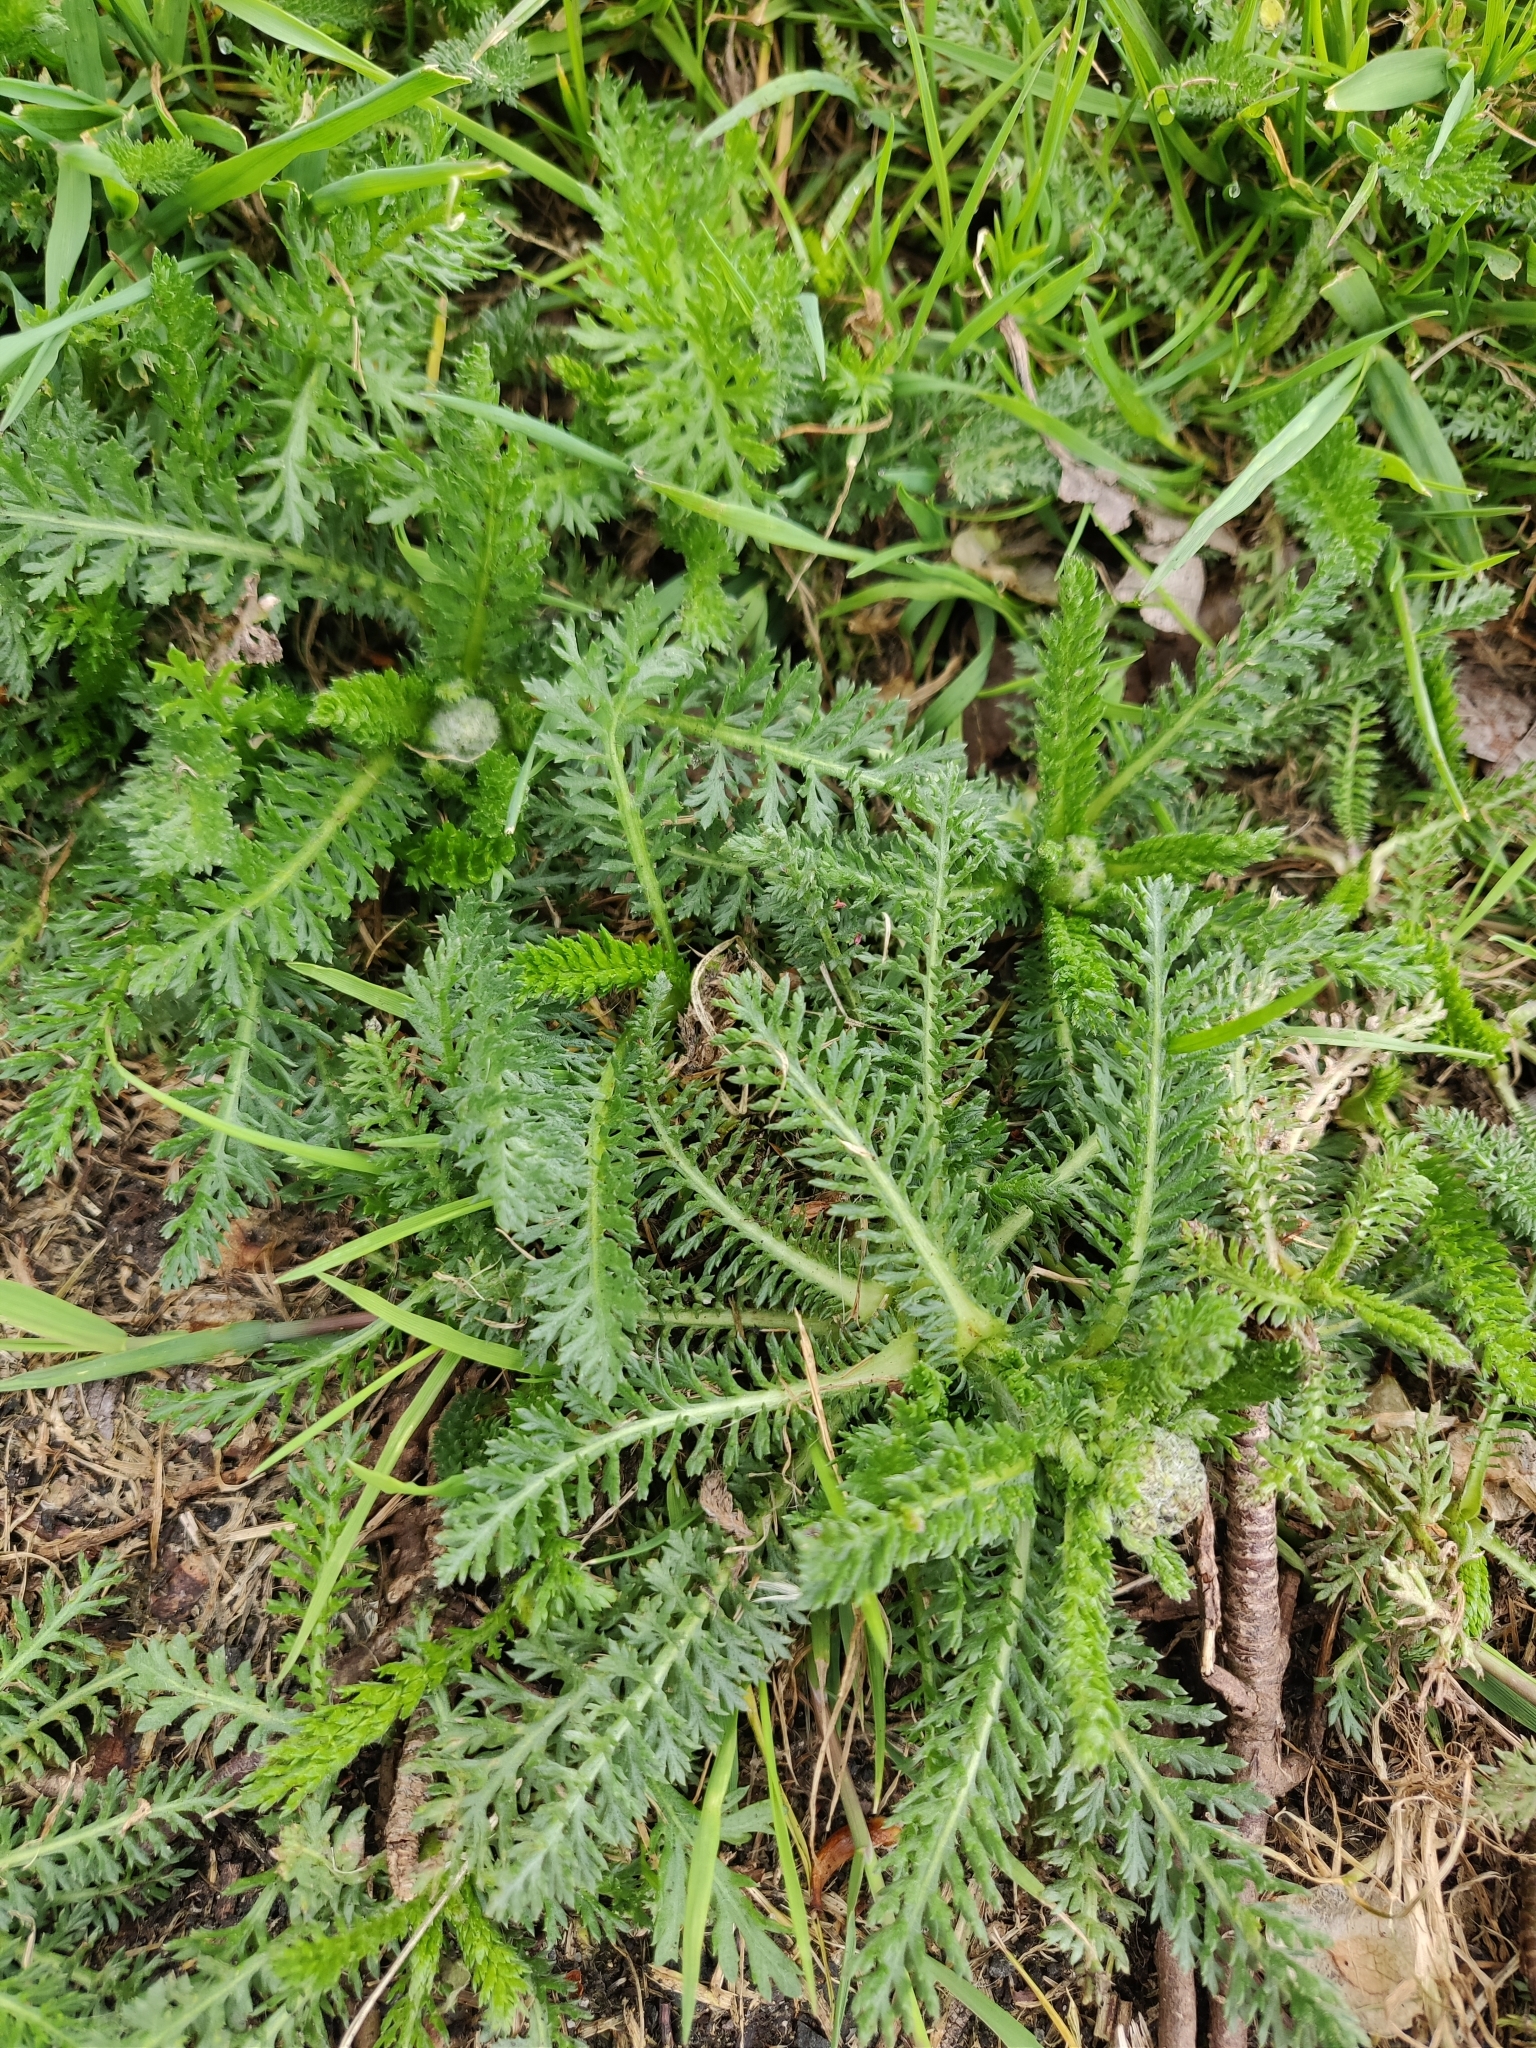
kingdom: Plantae
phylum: Tracheophyta
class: Magnoliopsida
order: Asterales
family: Asteraceae
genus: Achillea
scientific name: Achillea millefolium
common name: Yarrow
